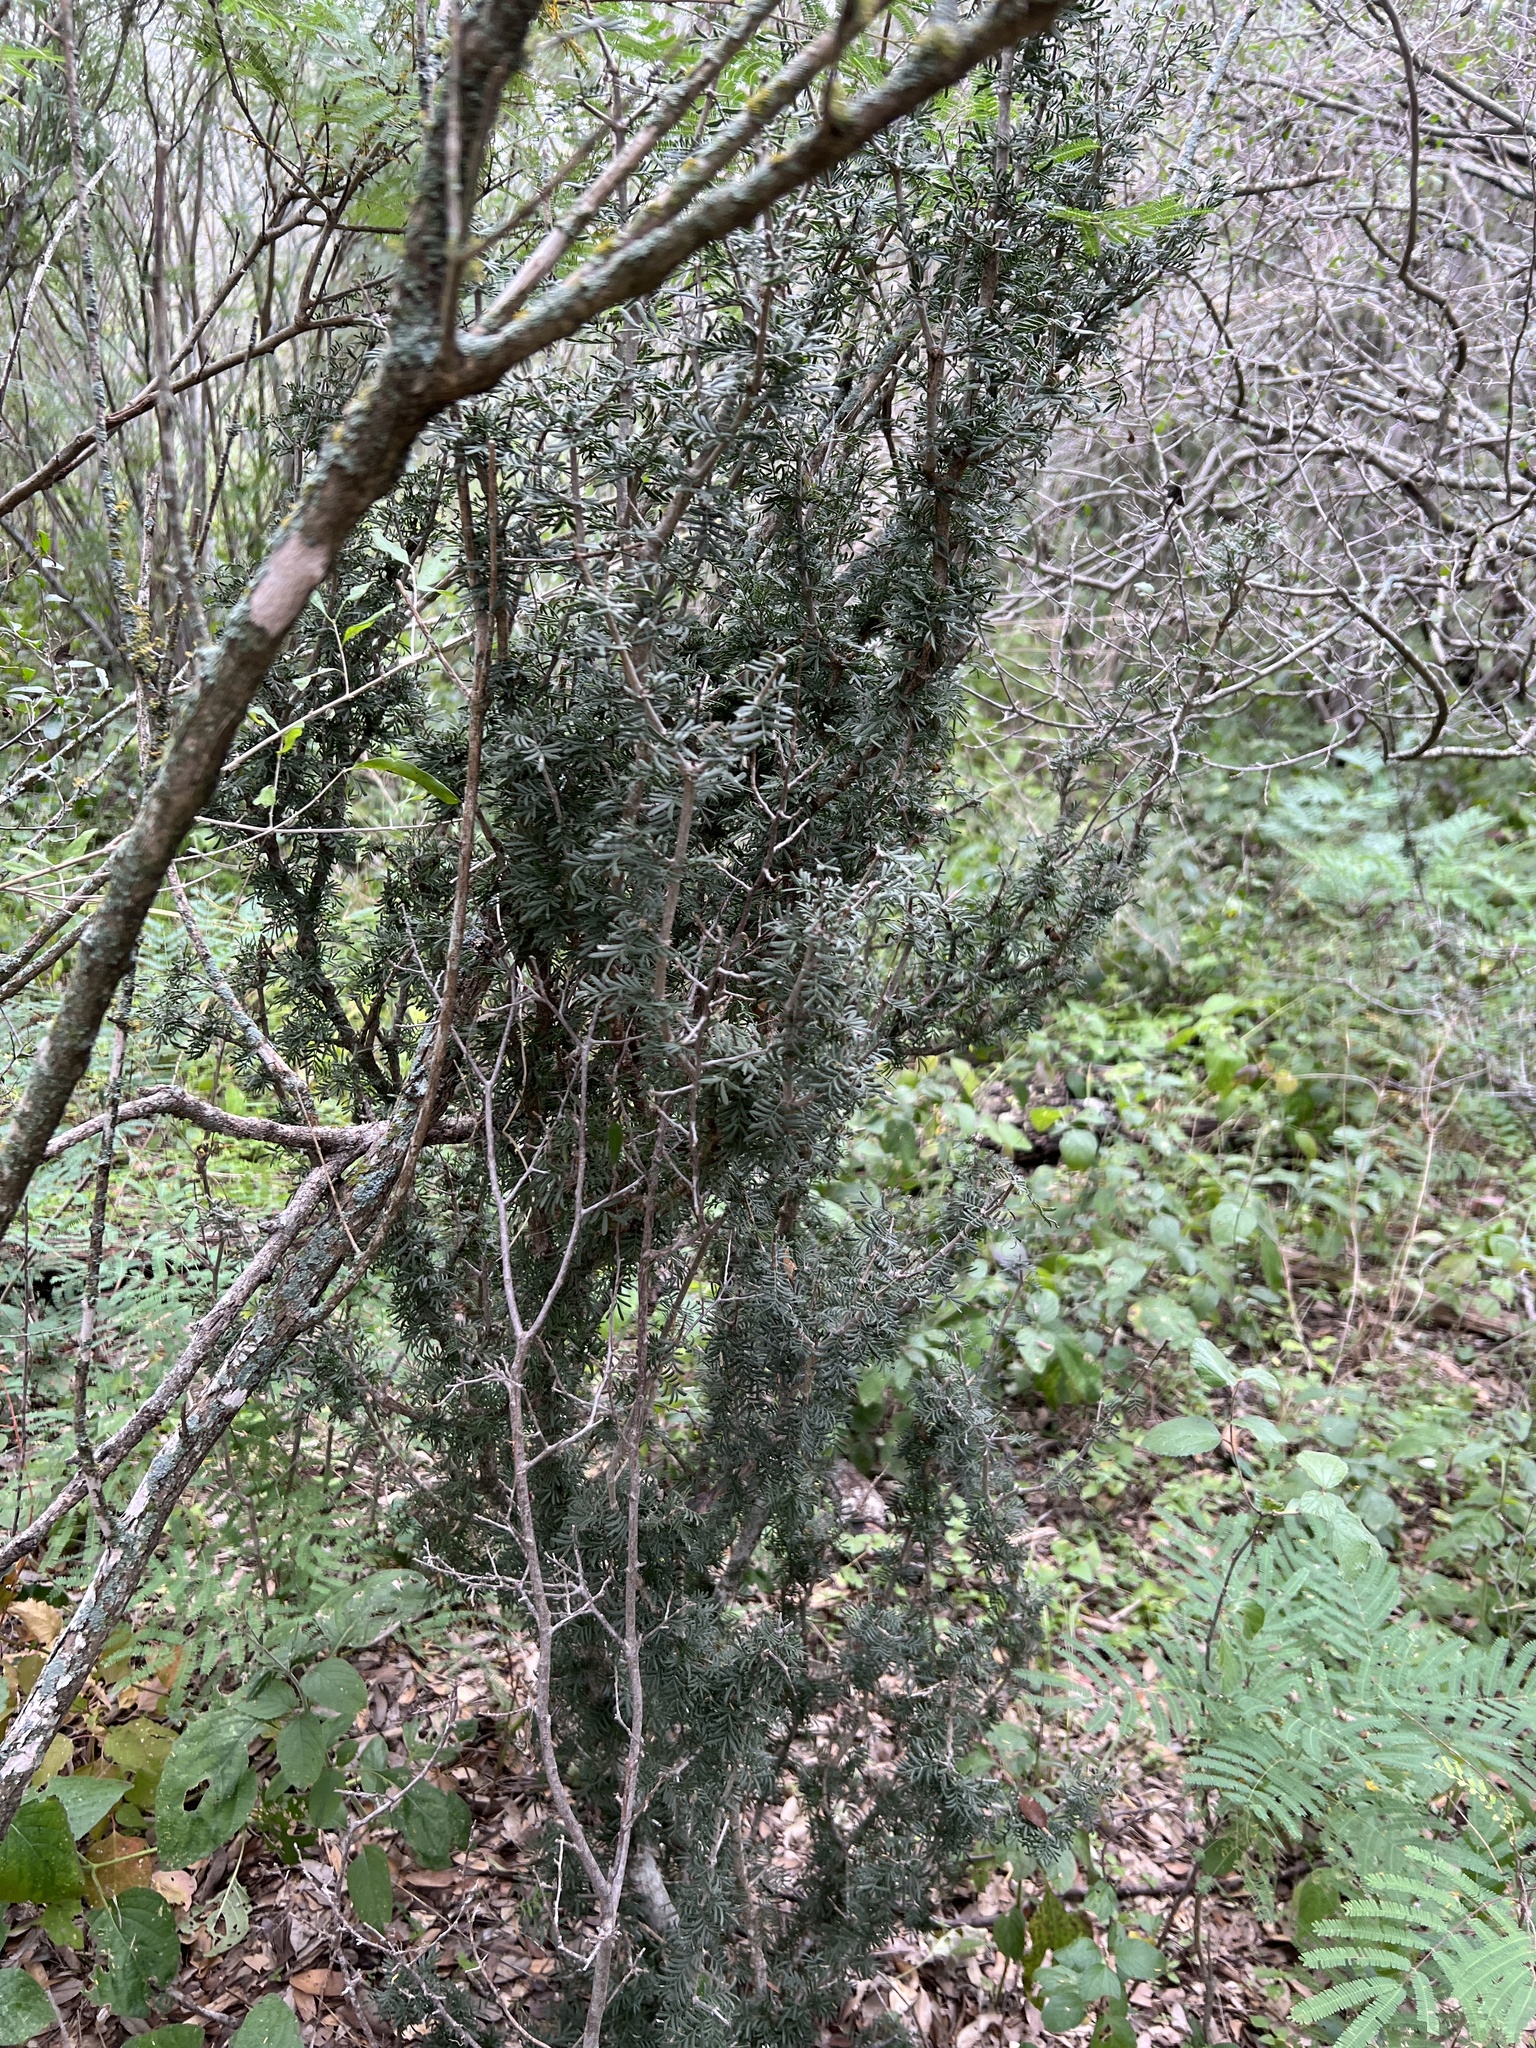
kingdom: Plantae
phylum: Tracheophyta
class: Magnoliopsida
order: Zygophyllales
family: Zygophyllaceae
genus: Porlieria
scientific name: Porlieria angustifolia
